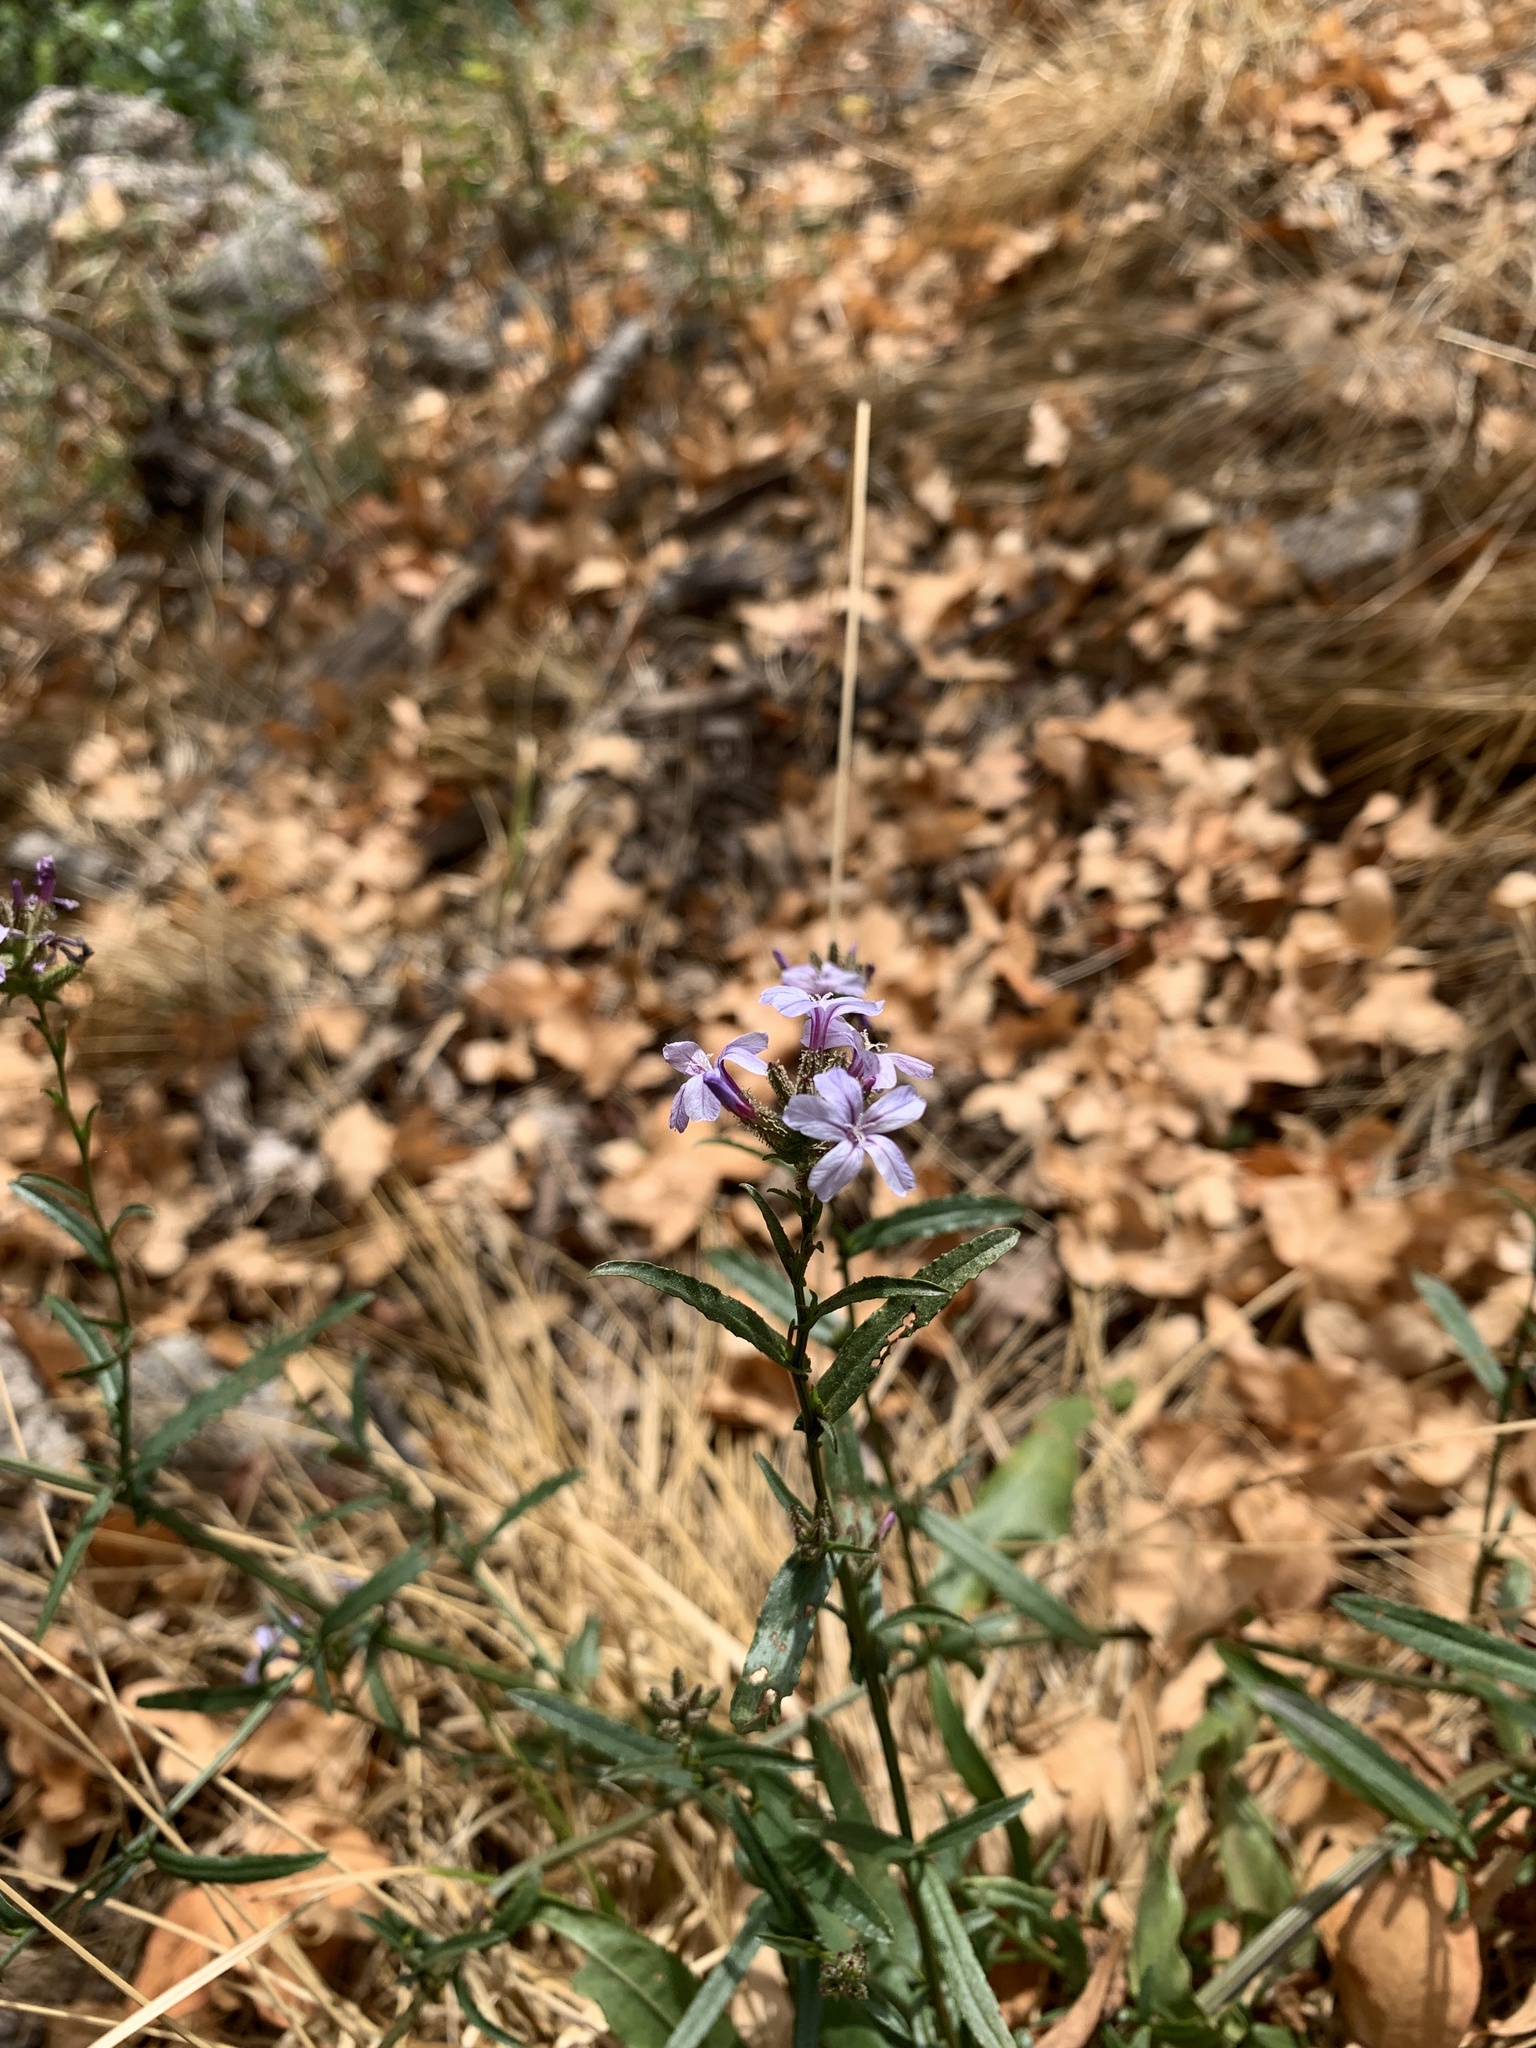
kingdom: Plantae
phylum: Tracheophyta
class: Magnoliopsida
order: Caryophyllales
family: Plumbaginaceae
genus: Plumbago
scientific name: Plumbago europaea
